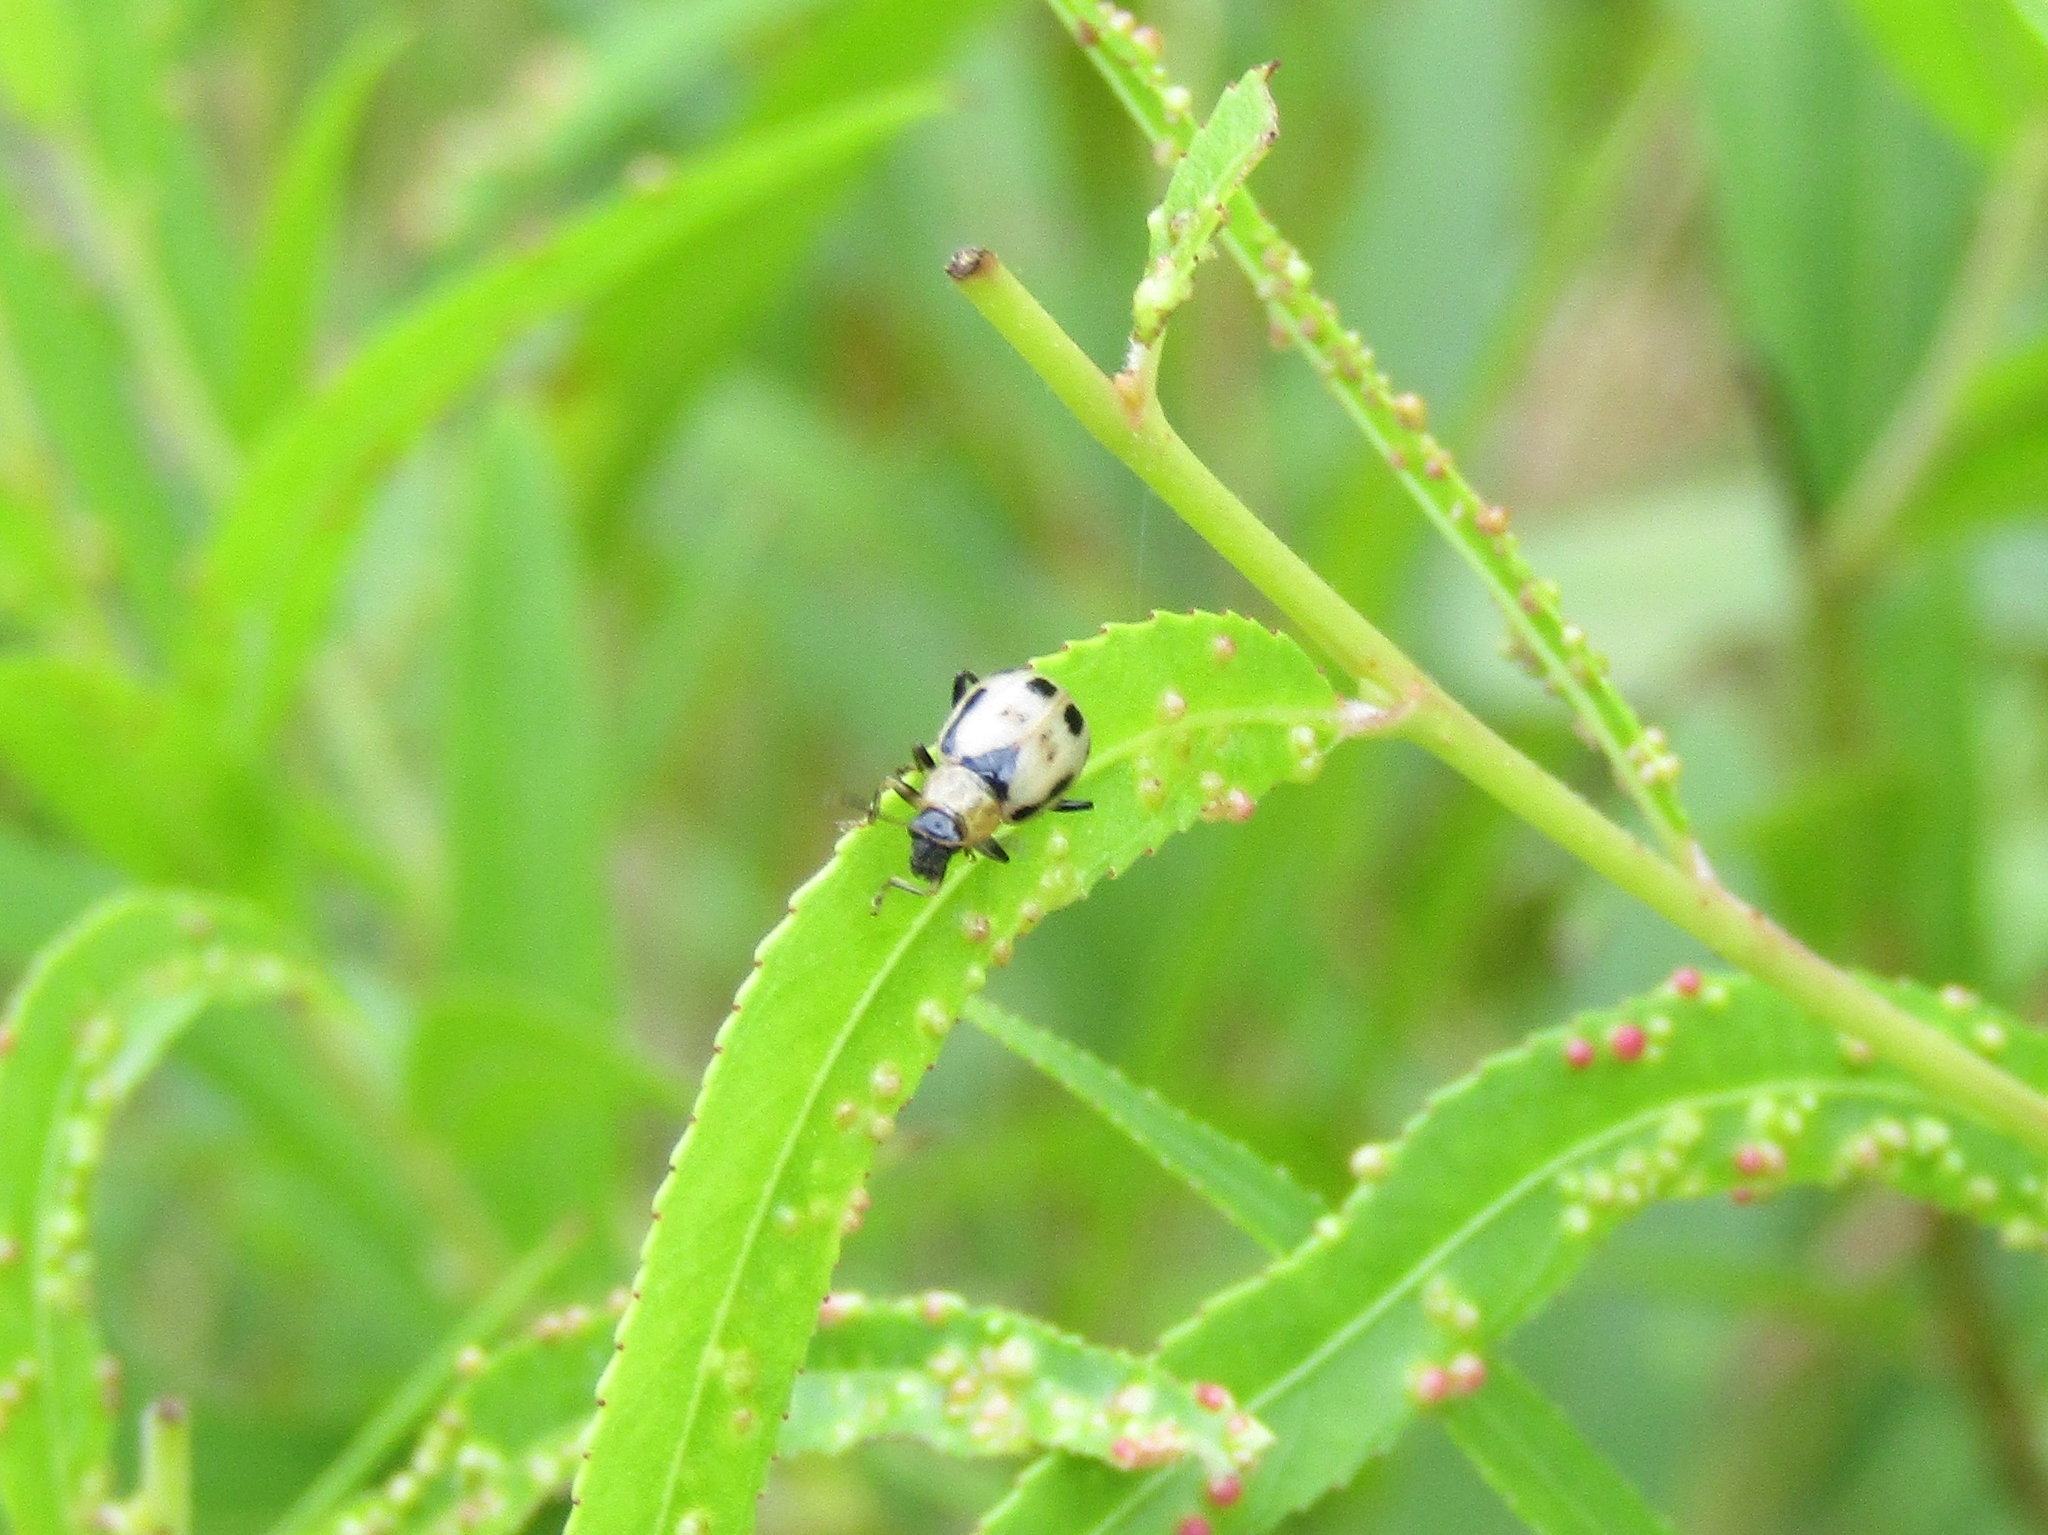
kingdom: Animalia
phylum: Arthropoda
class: Insecta
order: Coleoptera
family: Chrysomelidae
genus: Cerotoma
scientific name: Cerotoma trifurcata
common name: Bean leaf beetle
